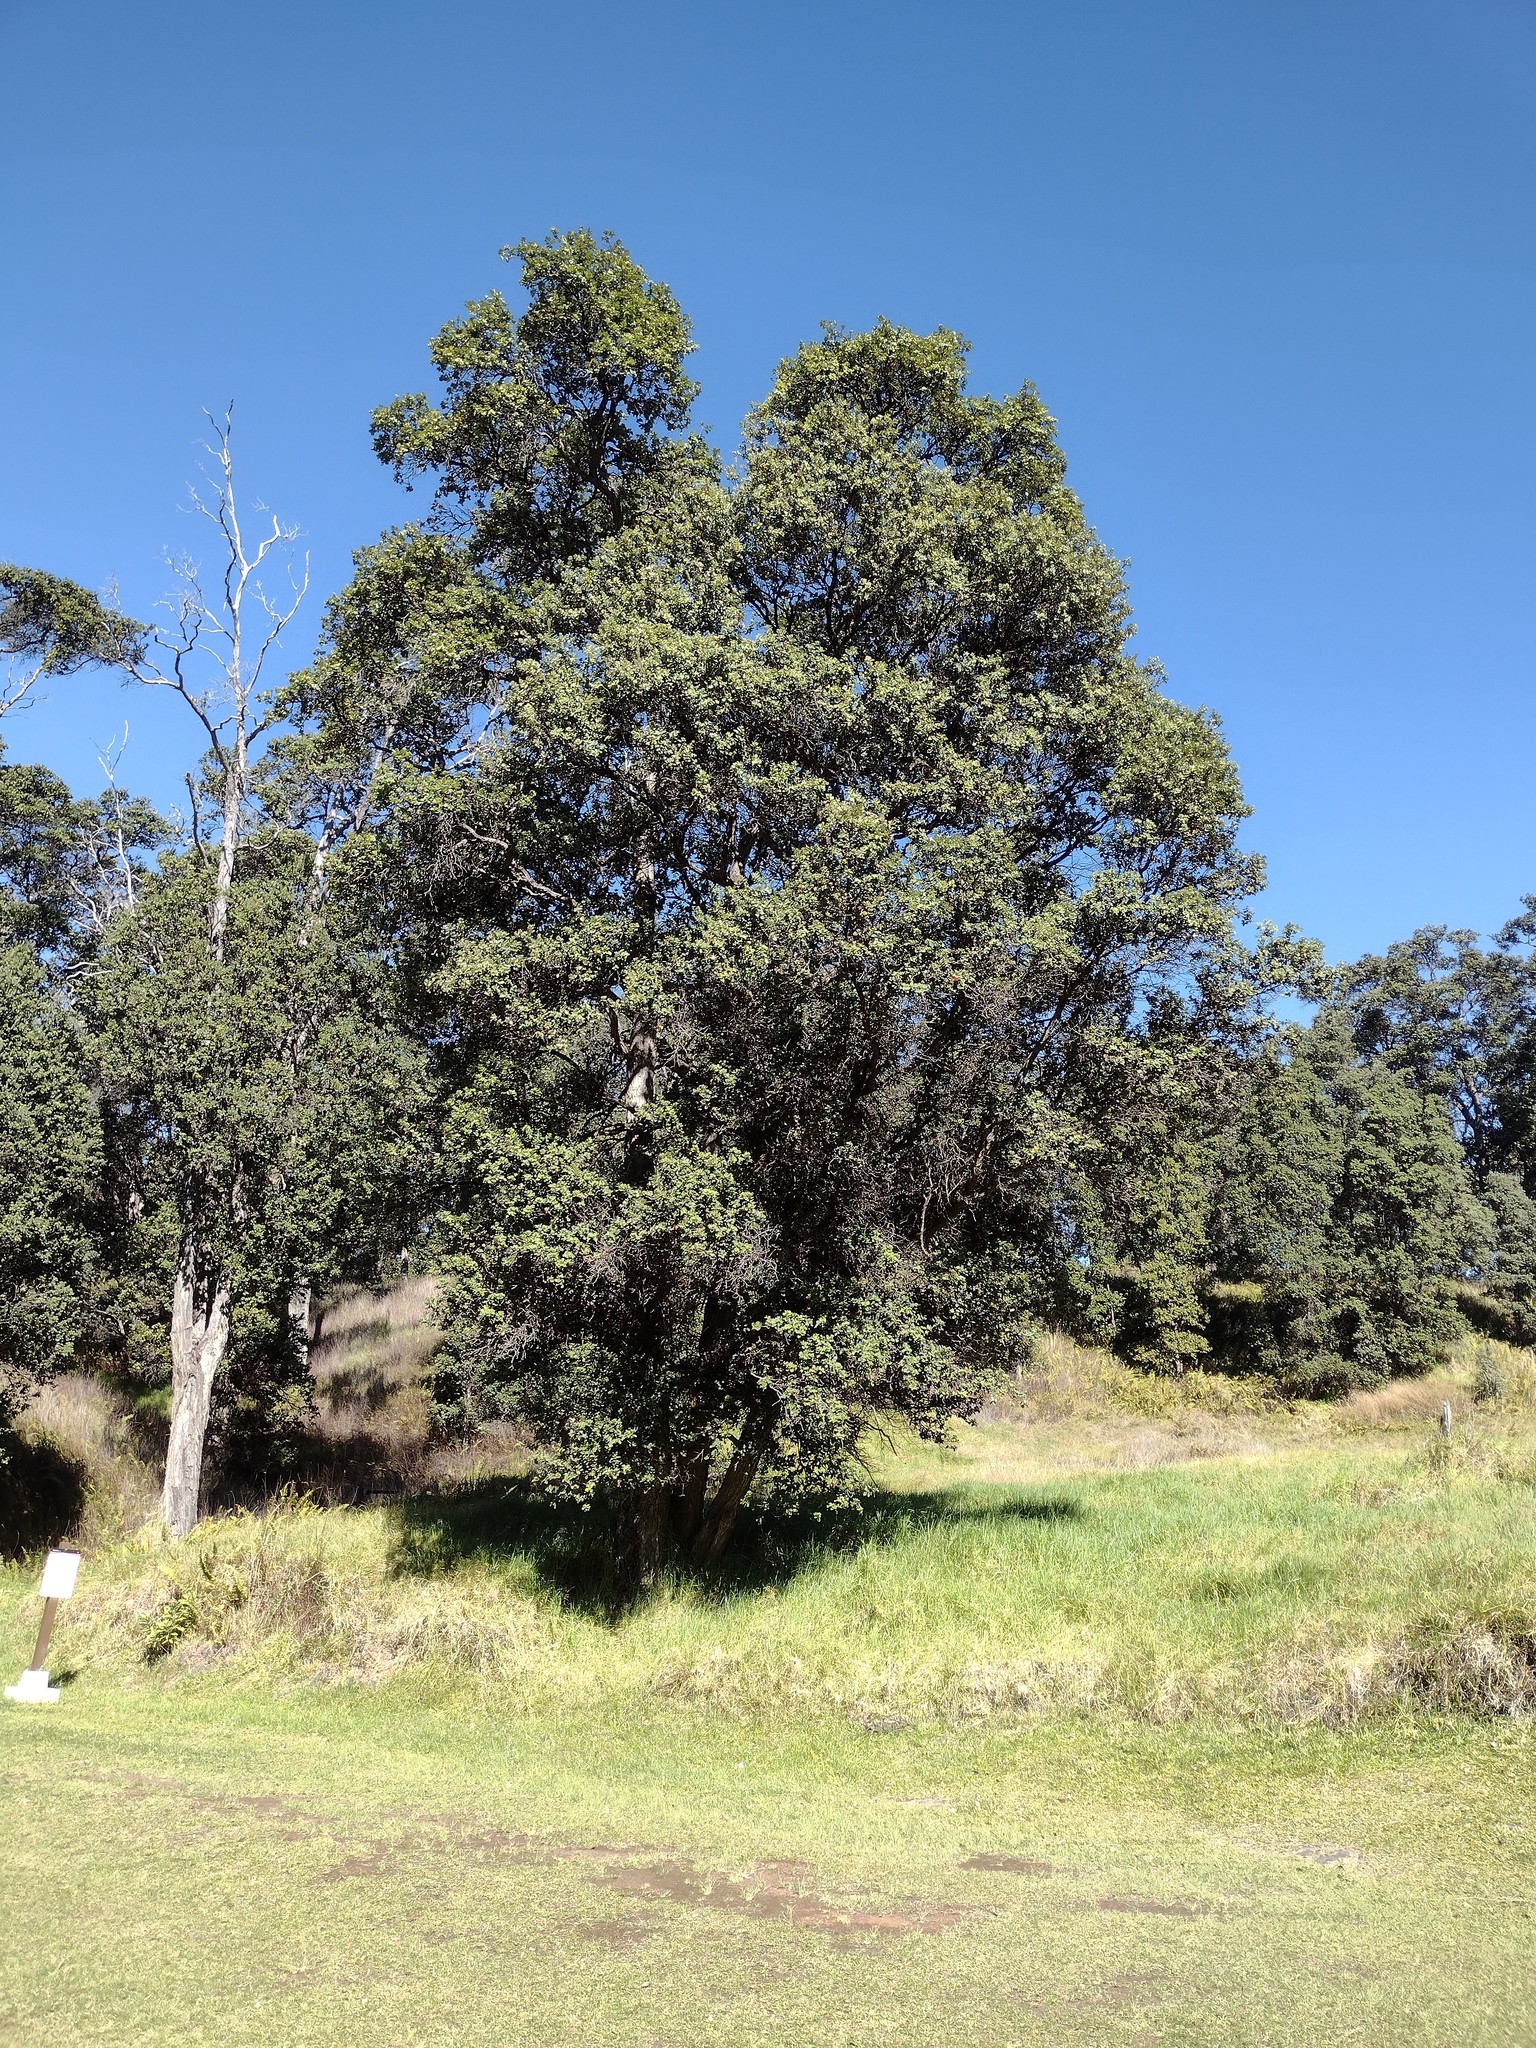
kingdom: Plantae
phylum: Tracheophyta
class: Magnoliopsida
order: Myrtales
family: Myrtaceae
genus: Metrosideros
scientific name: Metrosideros polymorpha
